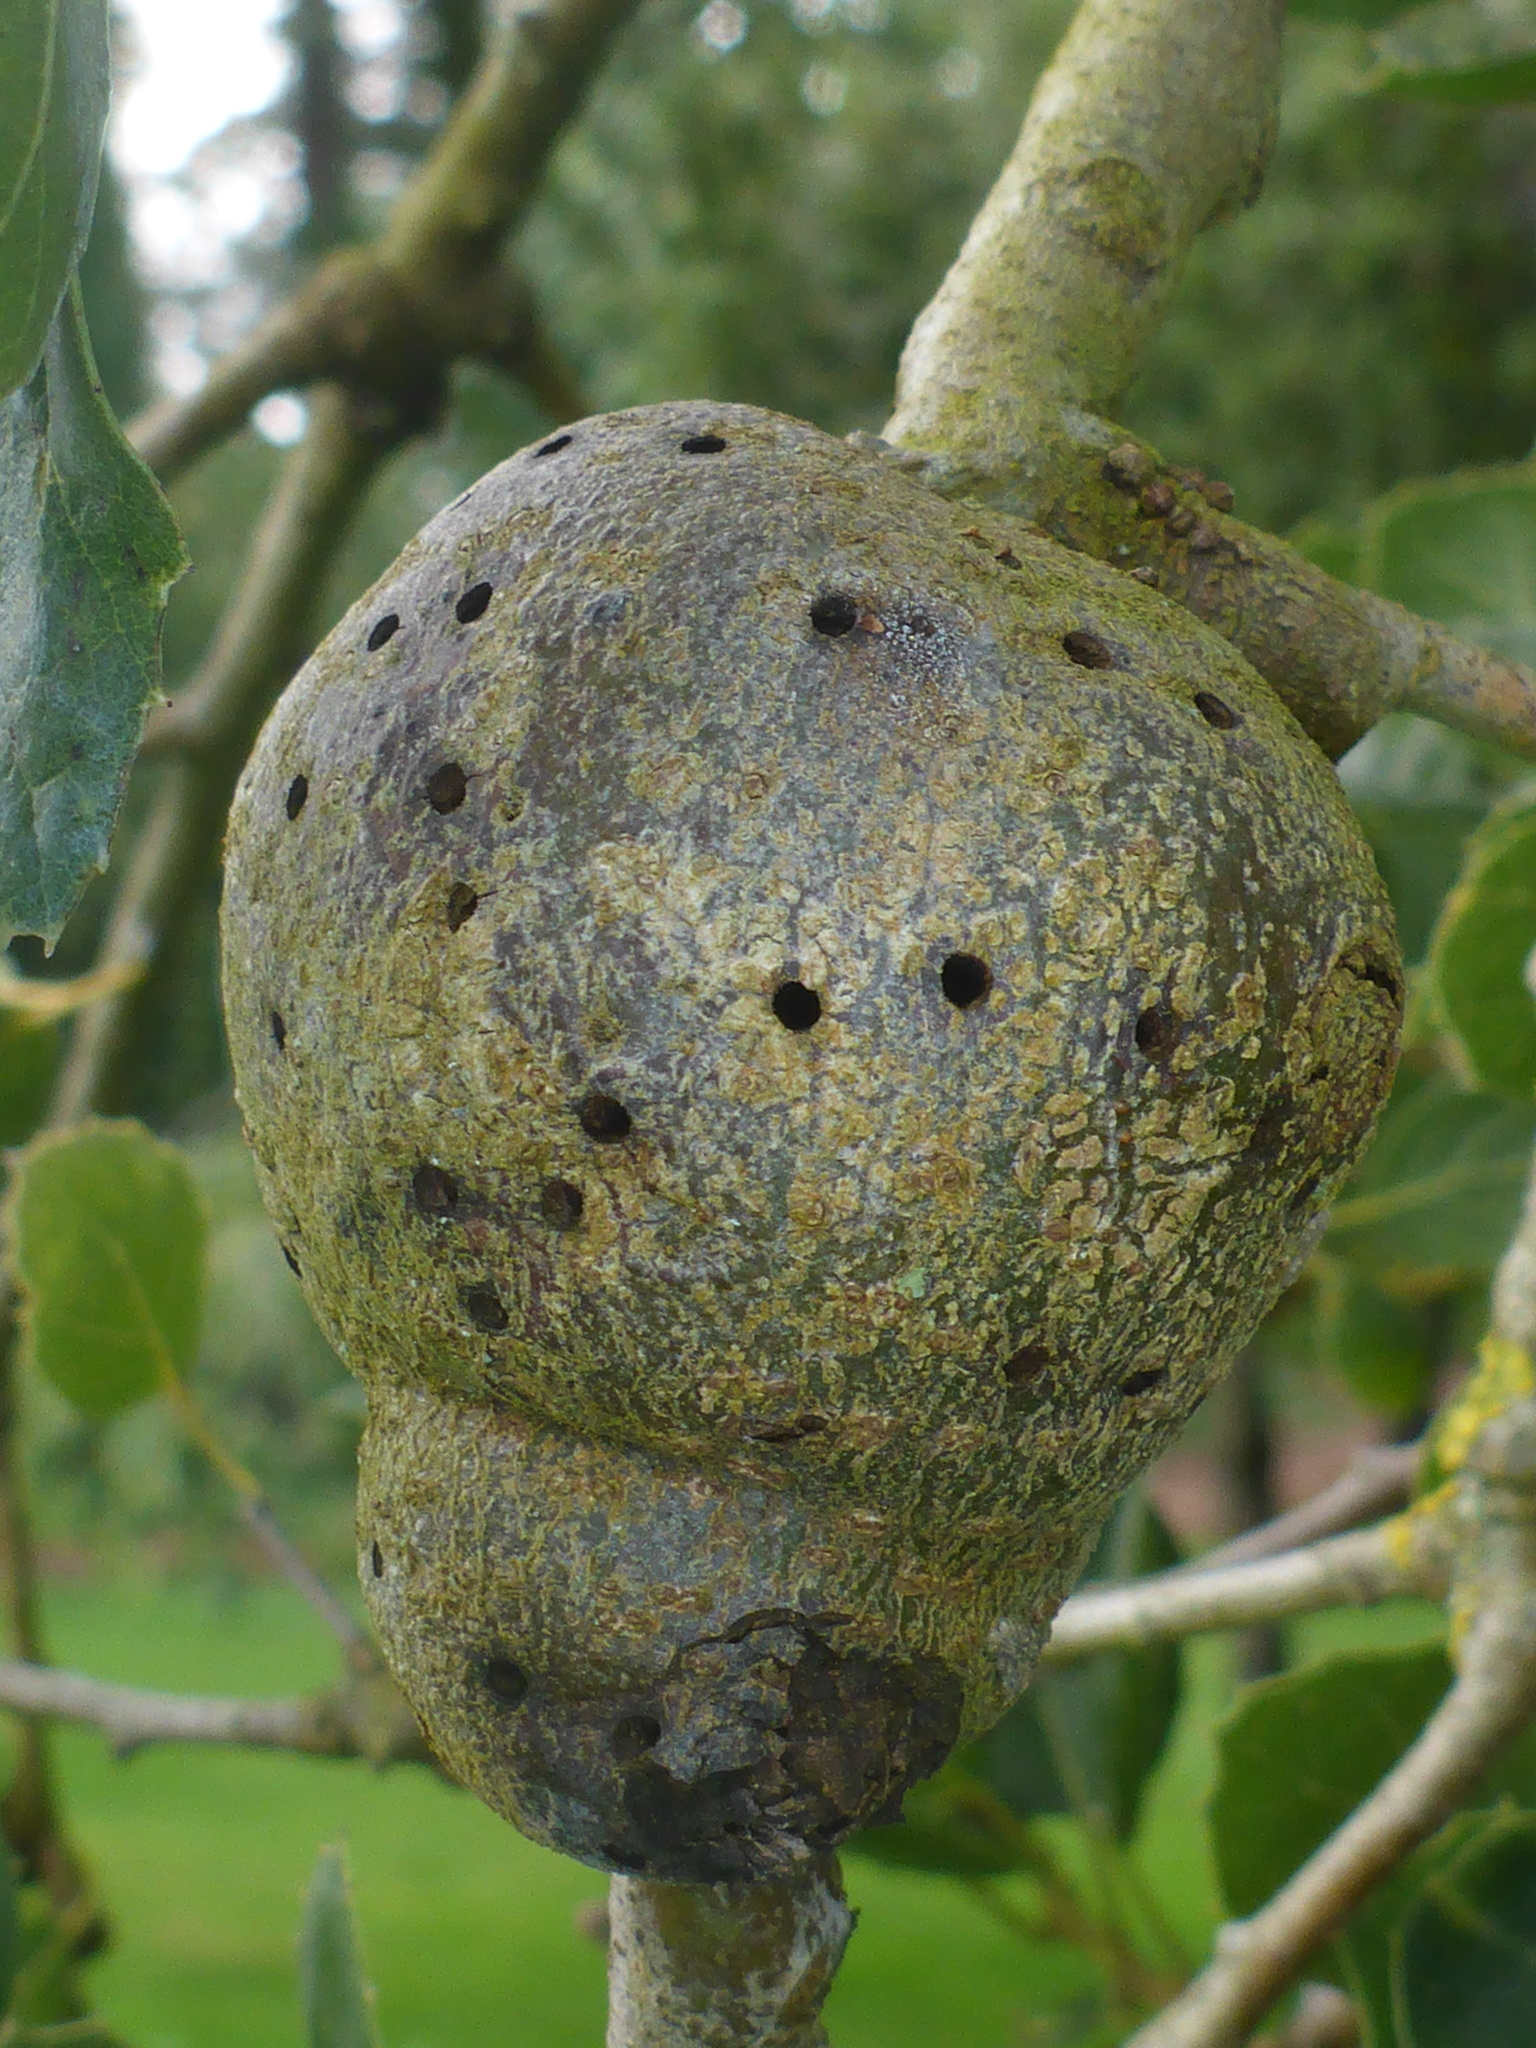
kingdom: Animalia
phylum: Arthropoda
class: Insecta
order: Hymenoptera
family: Cynipidae
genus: Callirhytis
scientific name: Callirhytis
